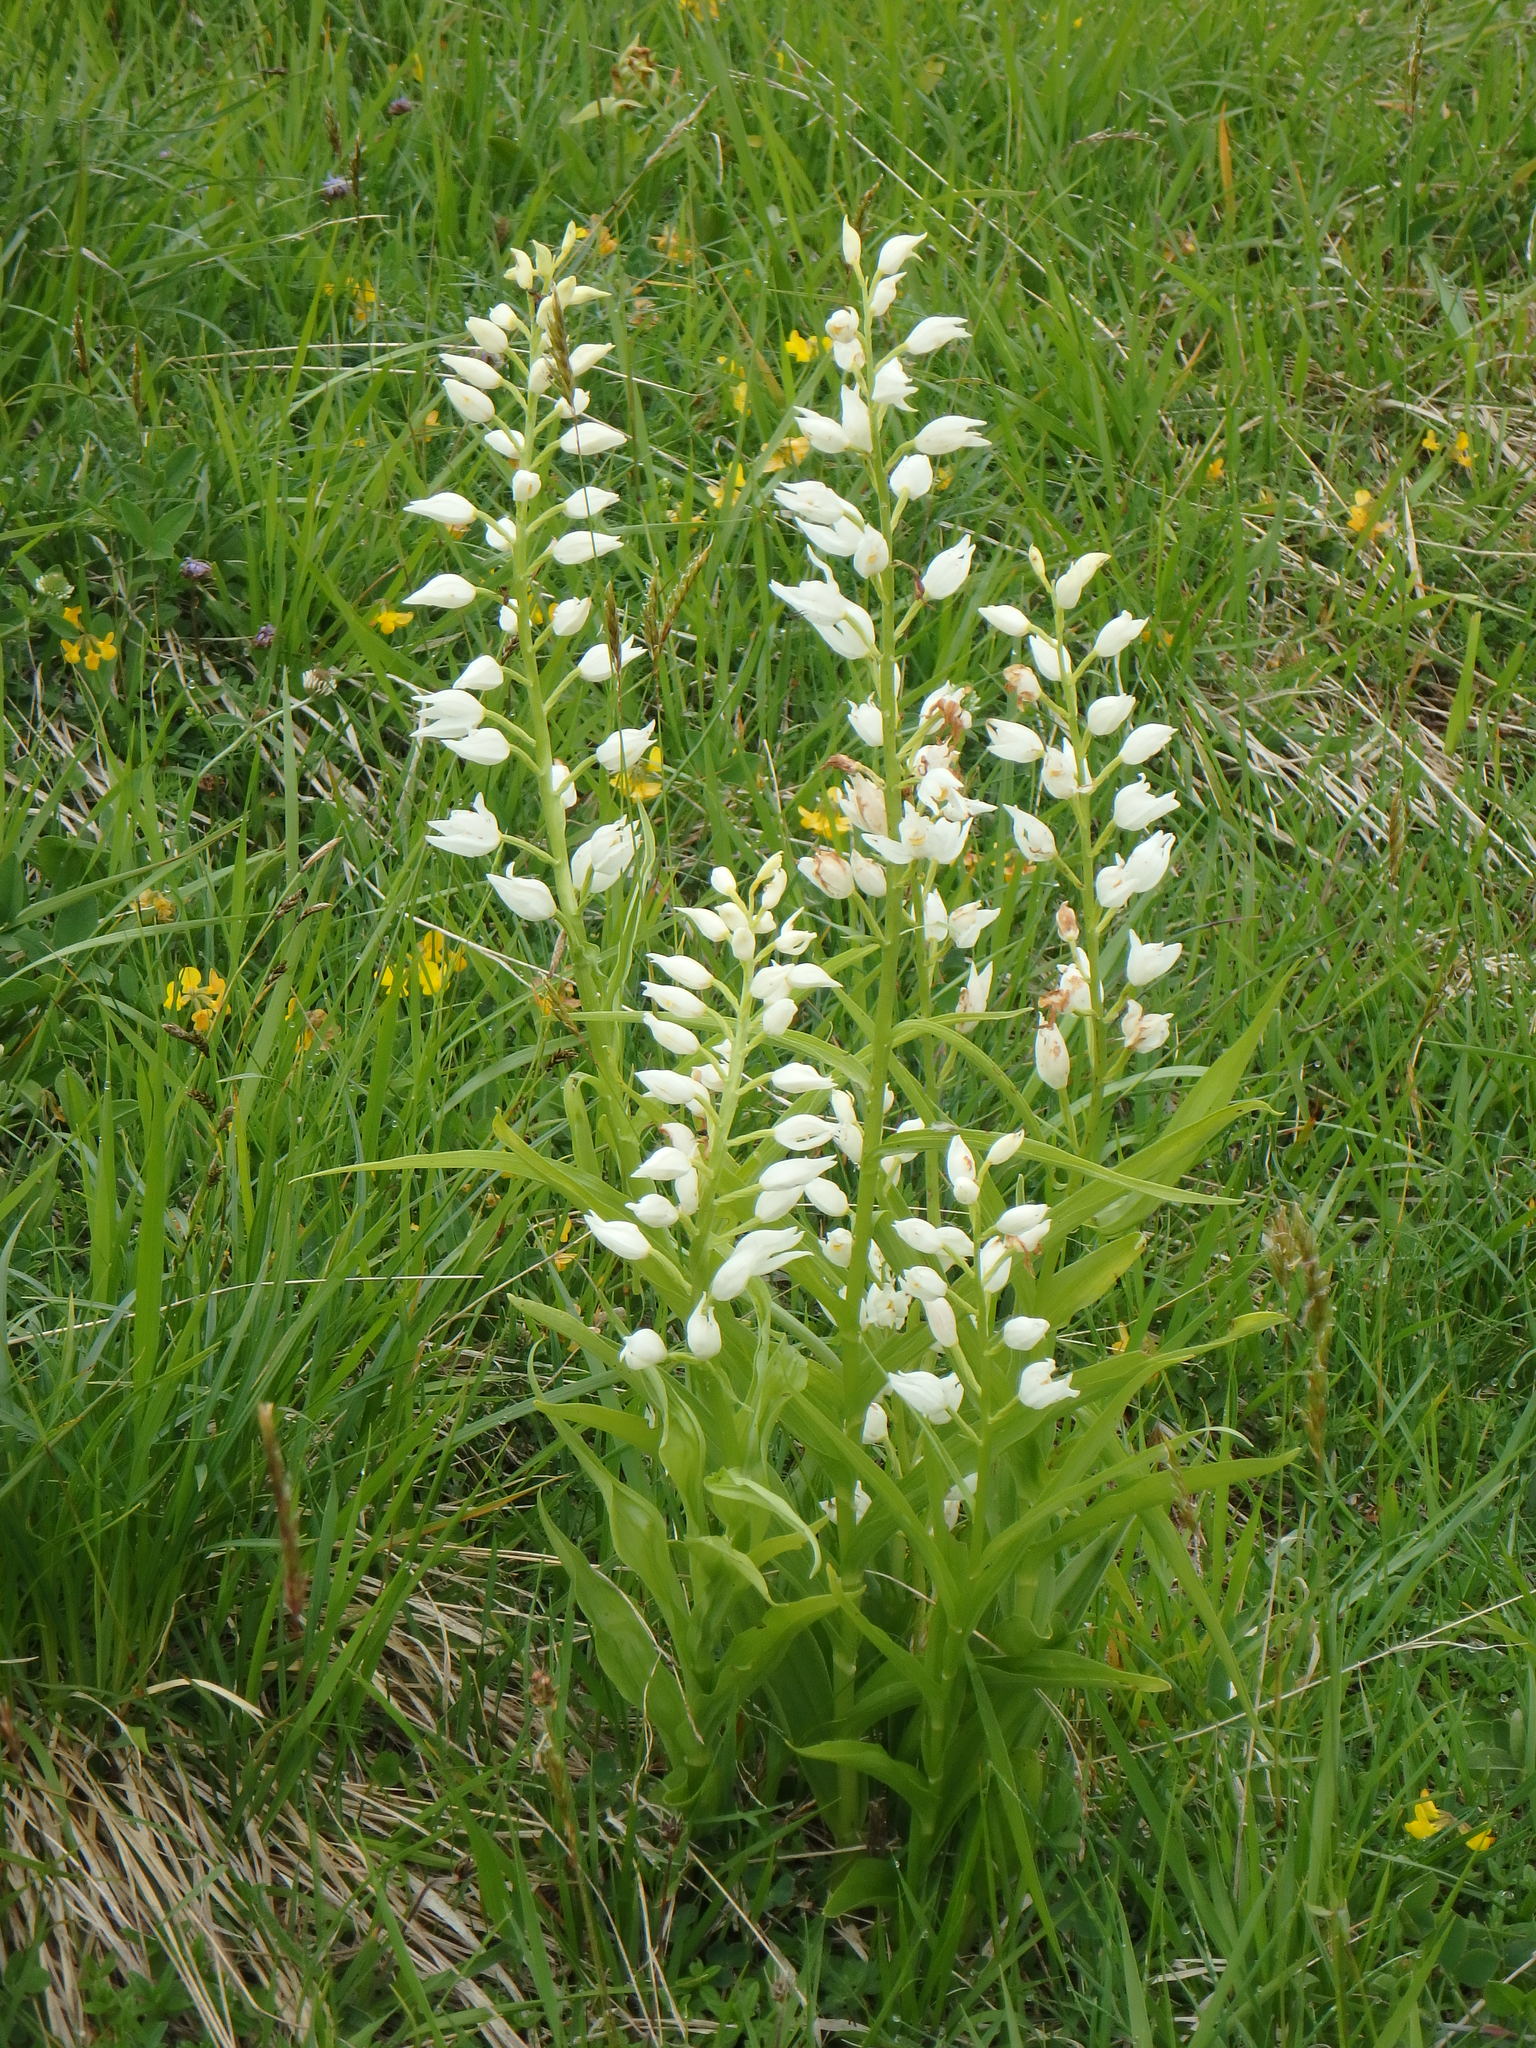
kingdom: Plantae
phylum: Tracheophyta
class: Liliopsida
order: Asparagales
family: Orchidaceae
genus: Cephalanthera
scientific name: Cephalanthera longifolia
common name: Narrow-leaved helleborine
